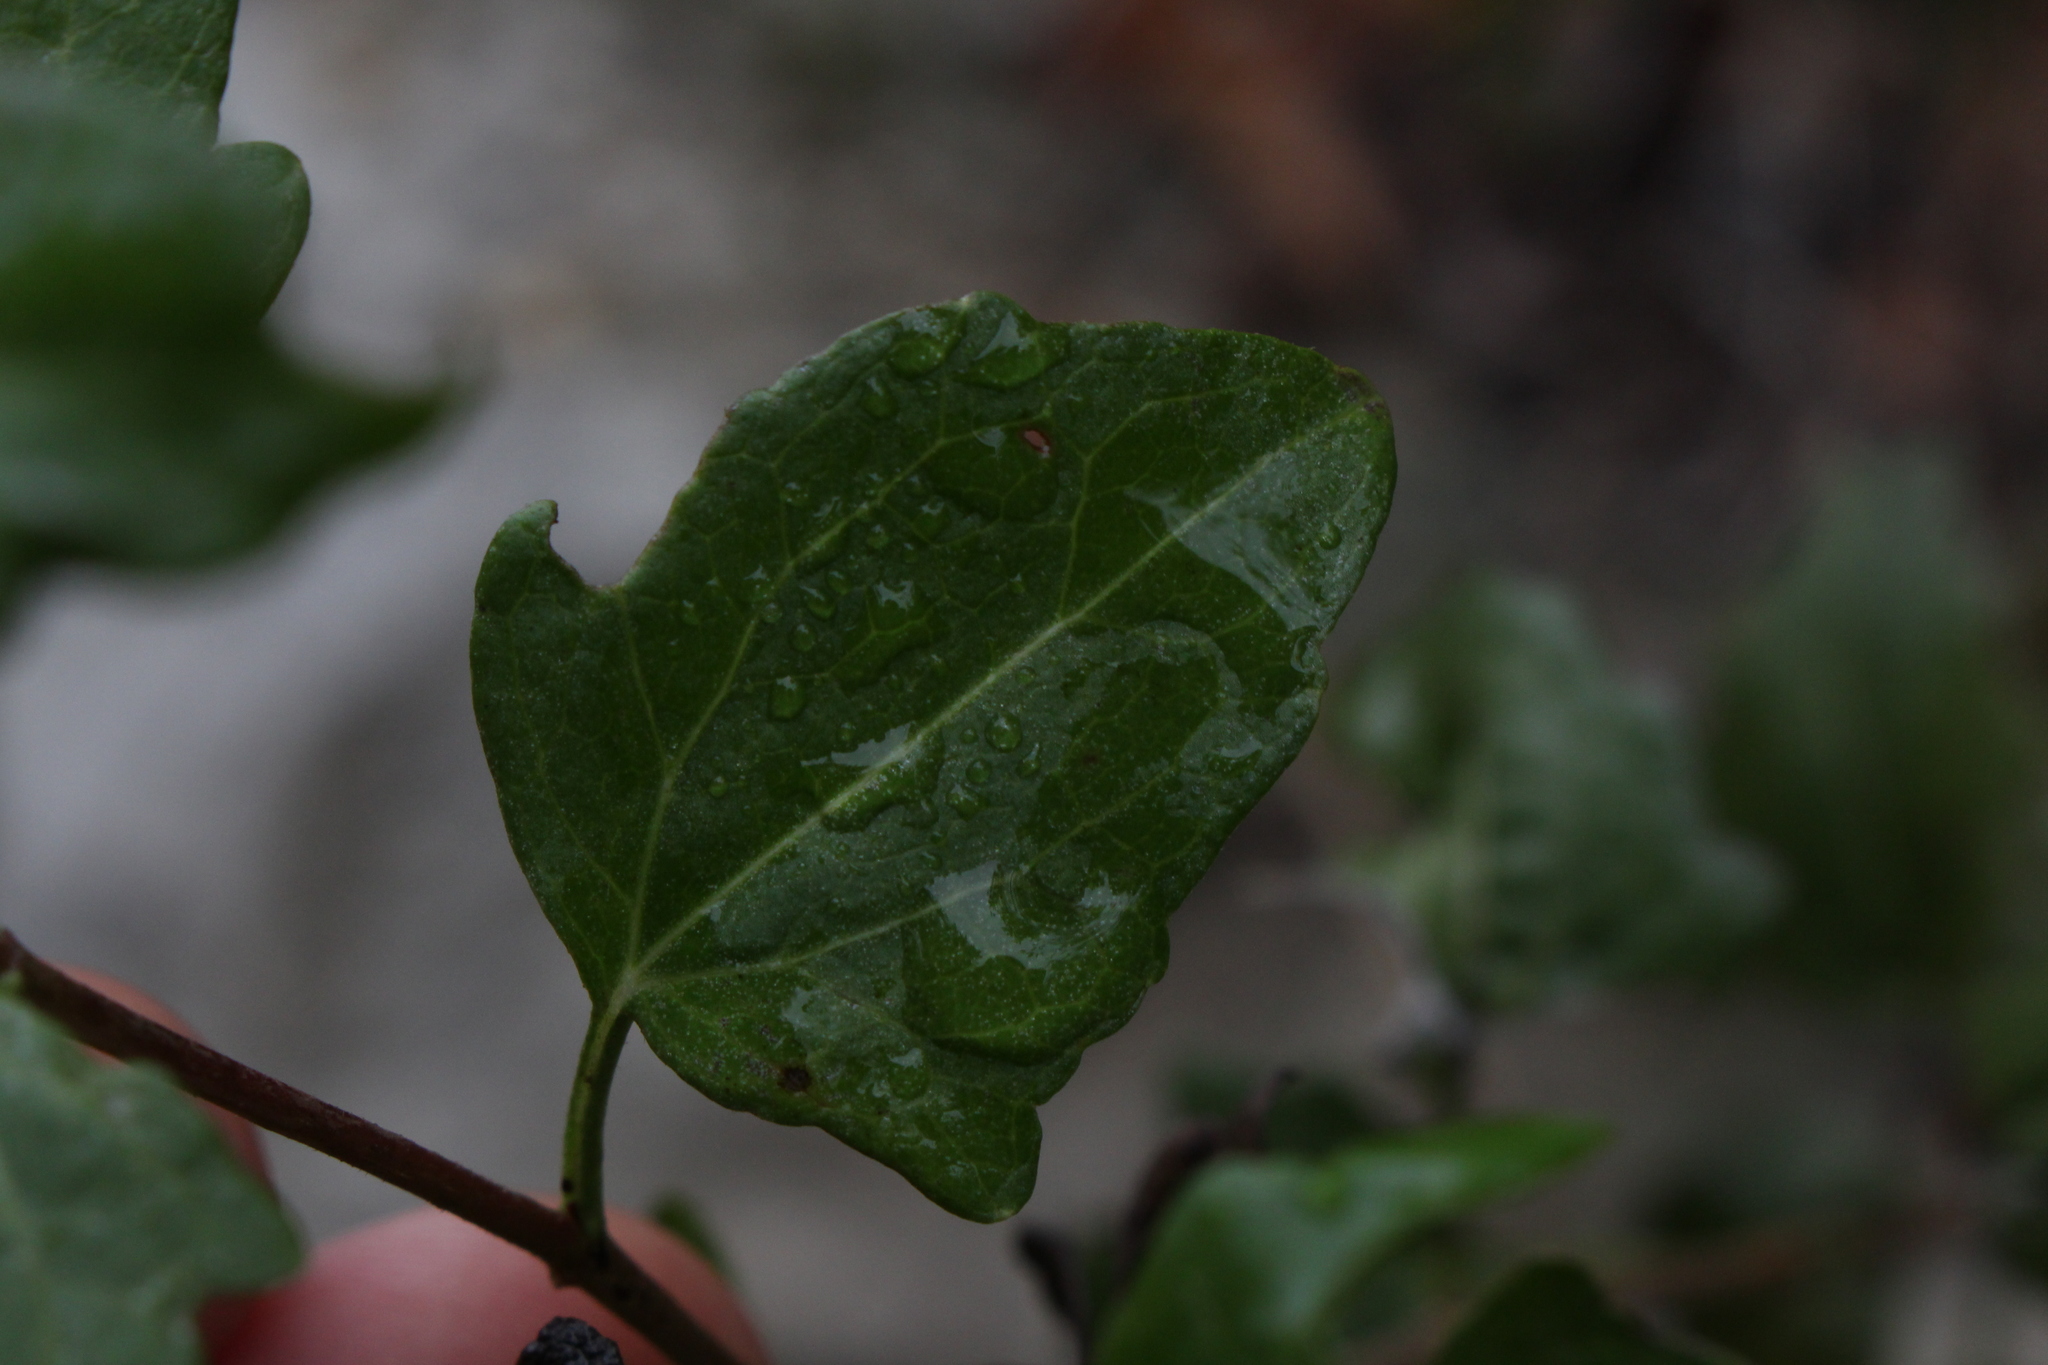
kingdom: Plantae
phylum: Tracheophyta
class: Magnoliopsida
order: Asterales
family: Asteraceae
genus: Ageratina
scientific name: Ageratina havanensis
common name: Havana snakeroot
